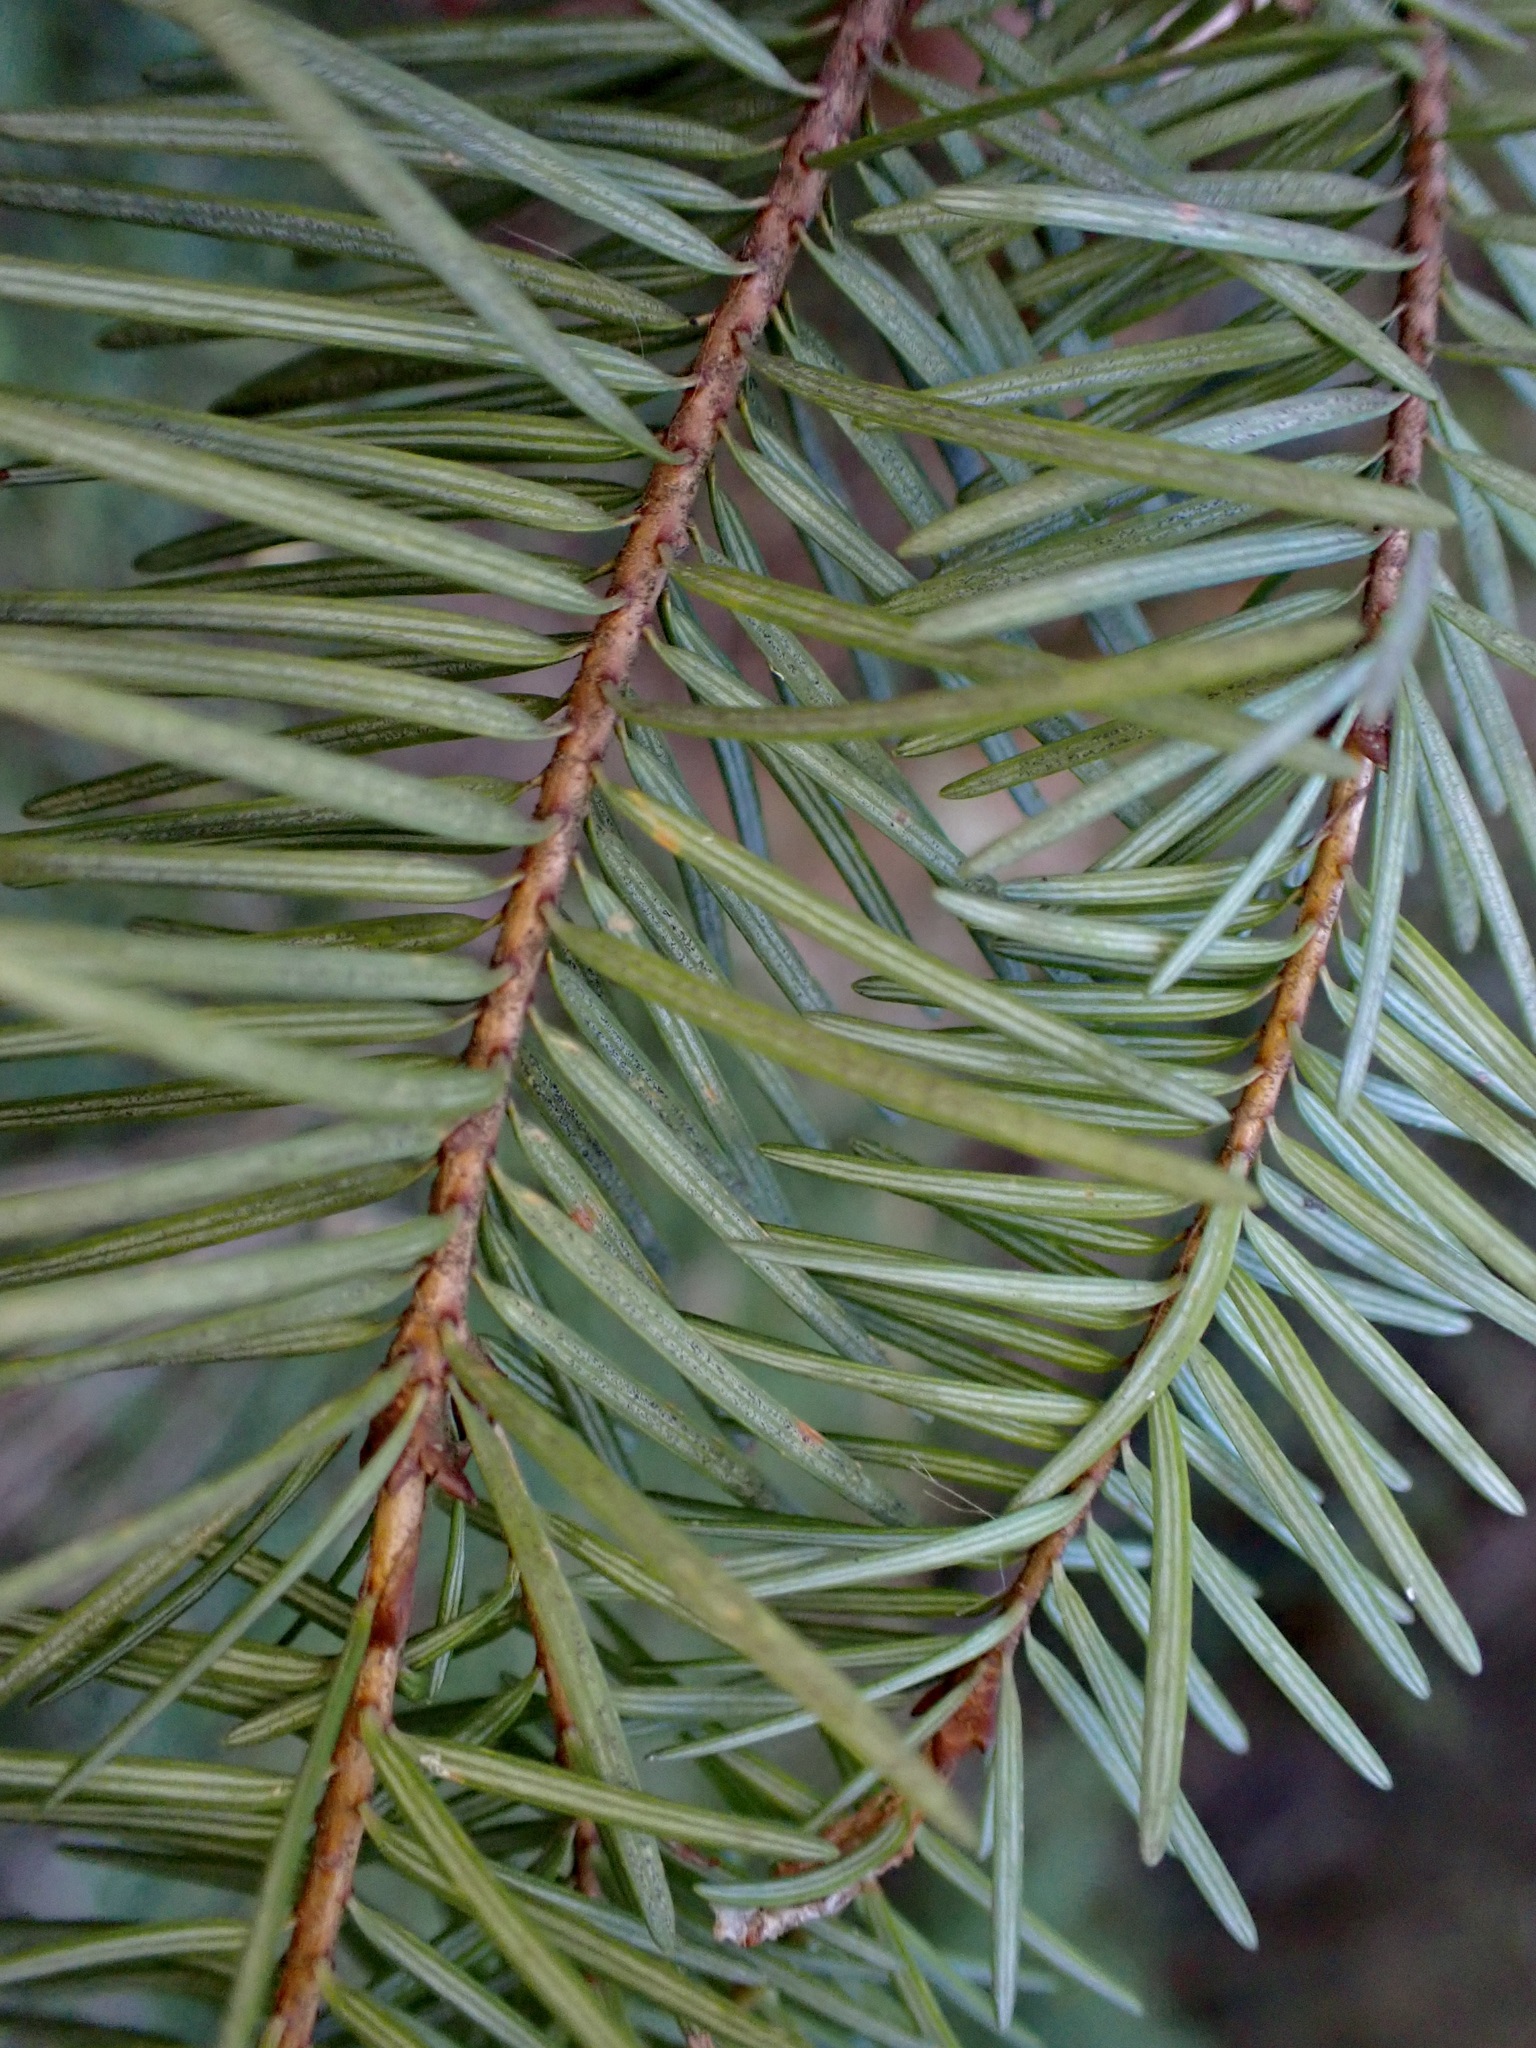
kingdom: Plantae
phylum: Tracheophyta
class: Pinopsida
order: Pinales
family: Pinaceae
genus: Pseudotsuga
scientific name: Pseudotsuga menziesii
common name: Douglas fir
